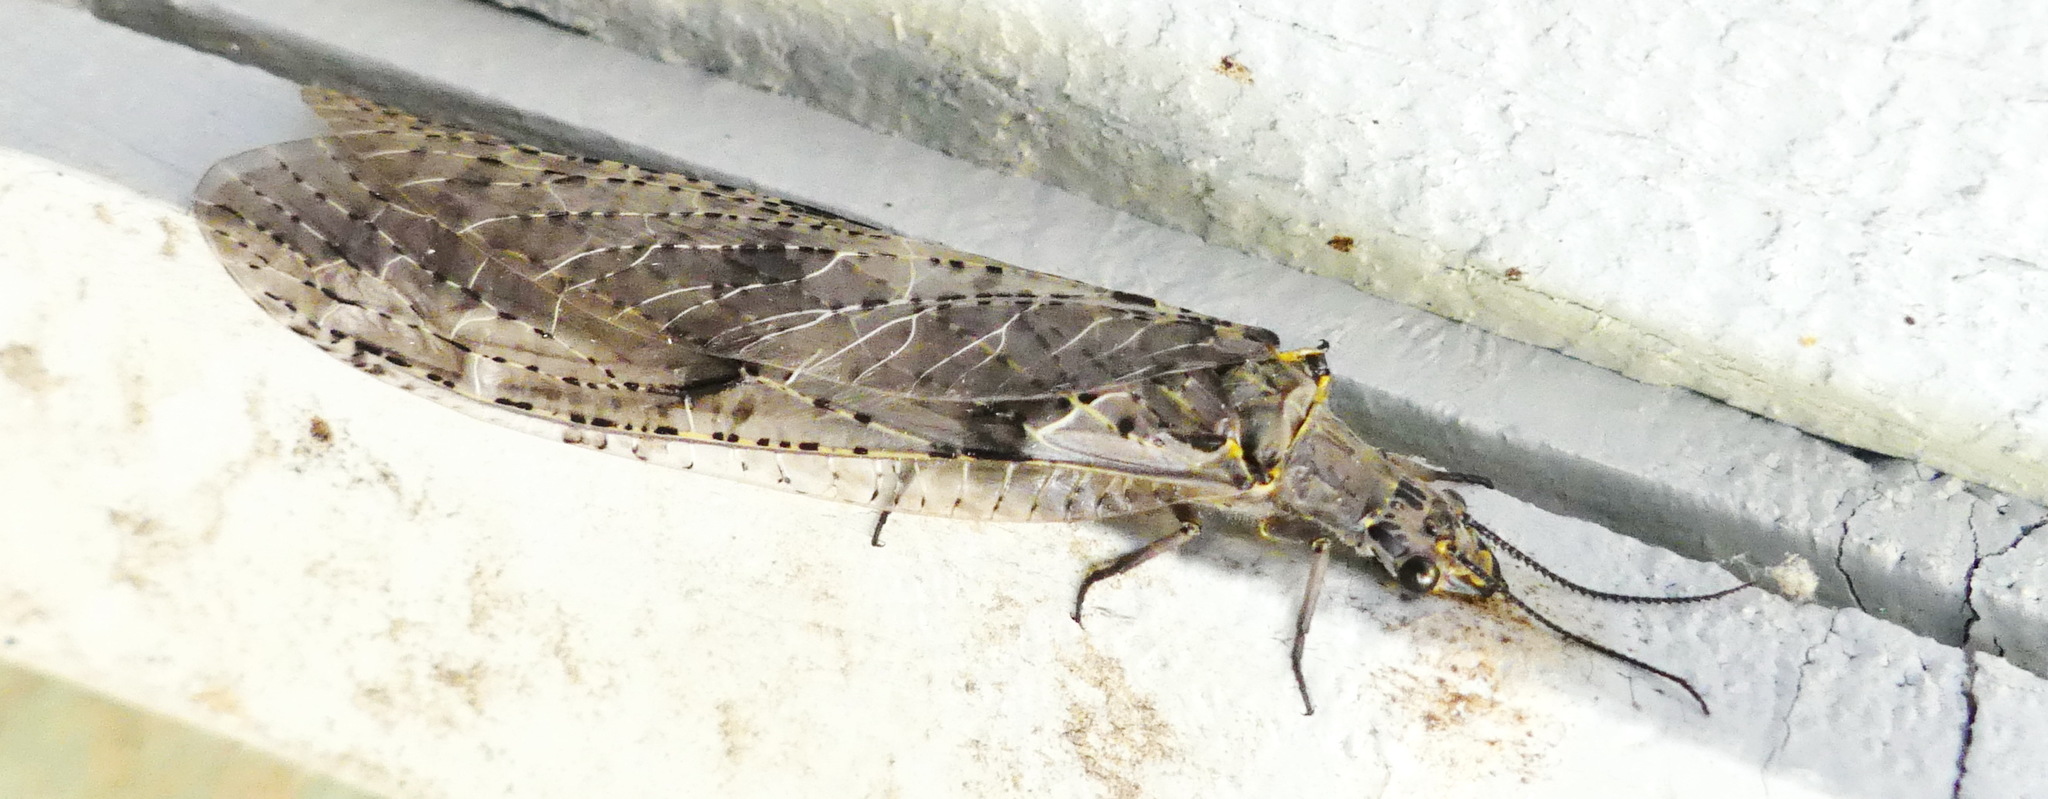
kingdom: Animalia
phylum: Arthropoda
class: Insecta
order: Megaloptera
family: Corydalidae
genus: Chauliodes
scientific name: Chauliodes rastricornis
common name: Spring fishfly
